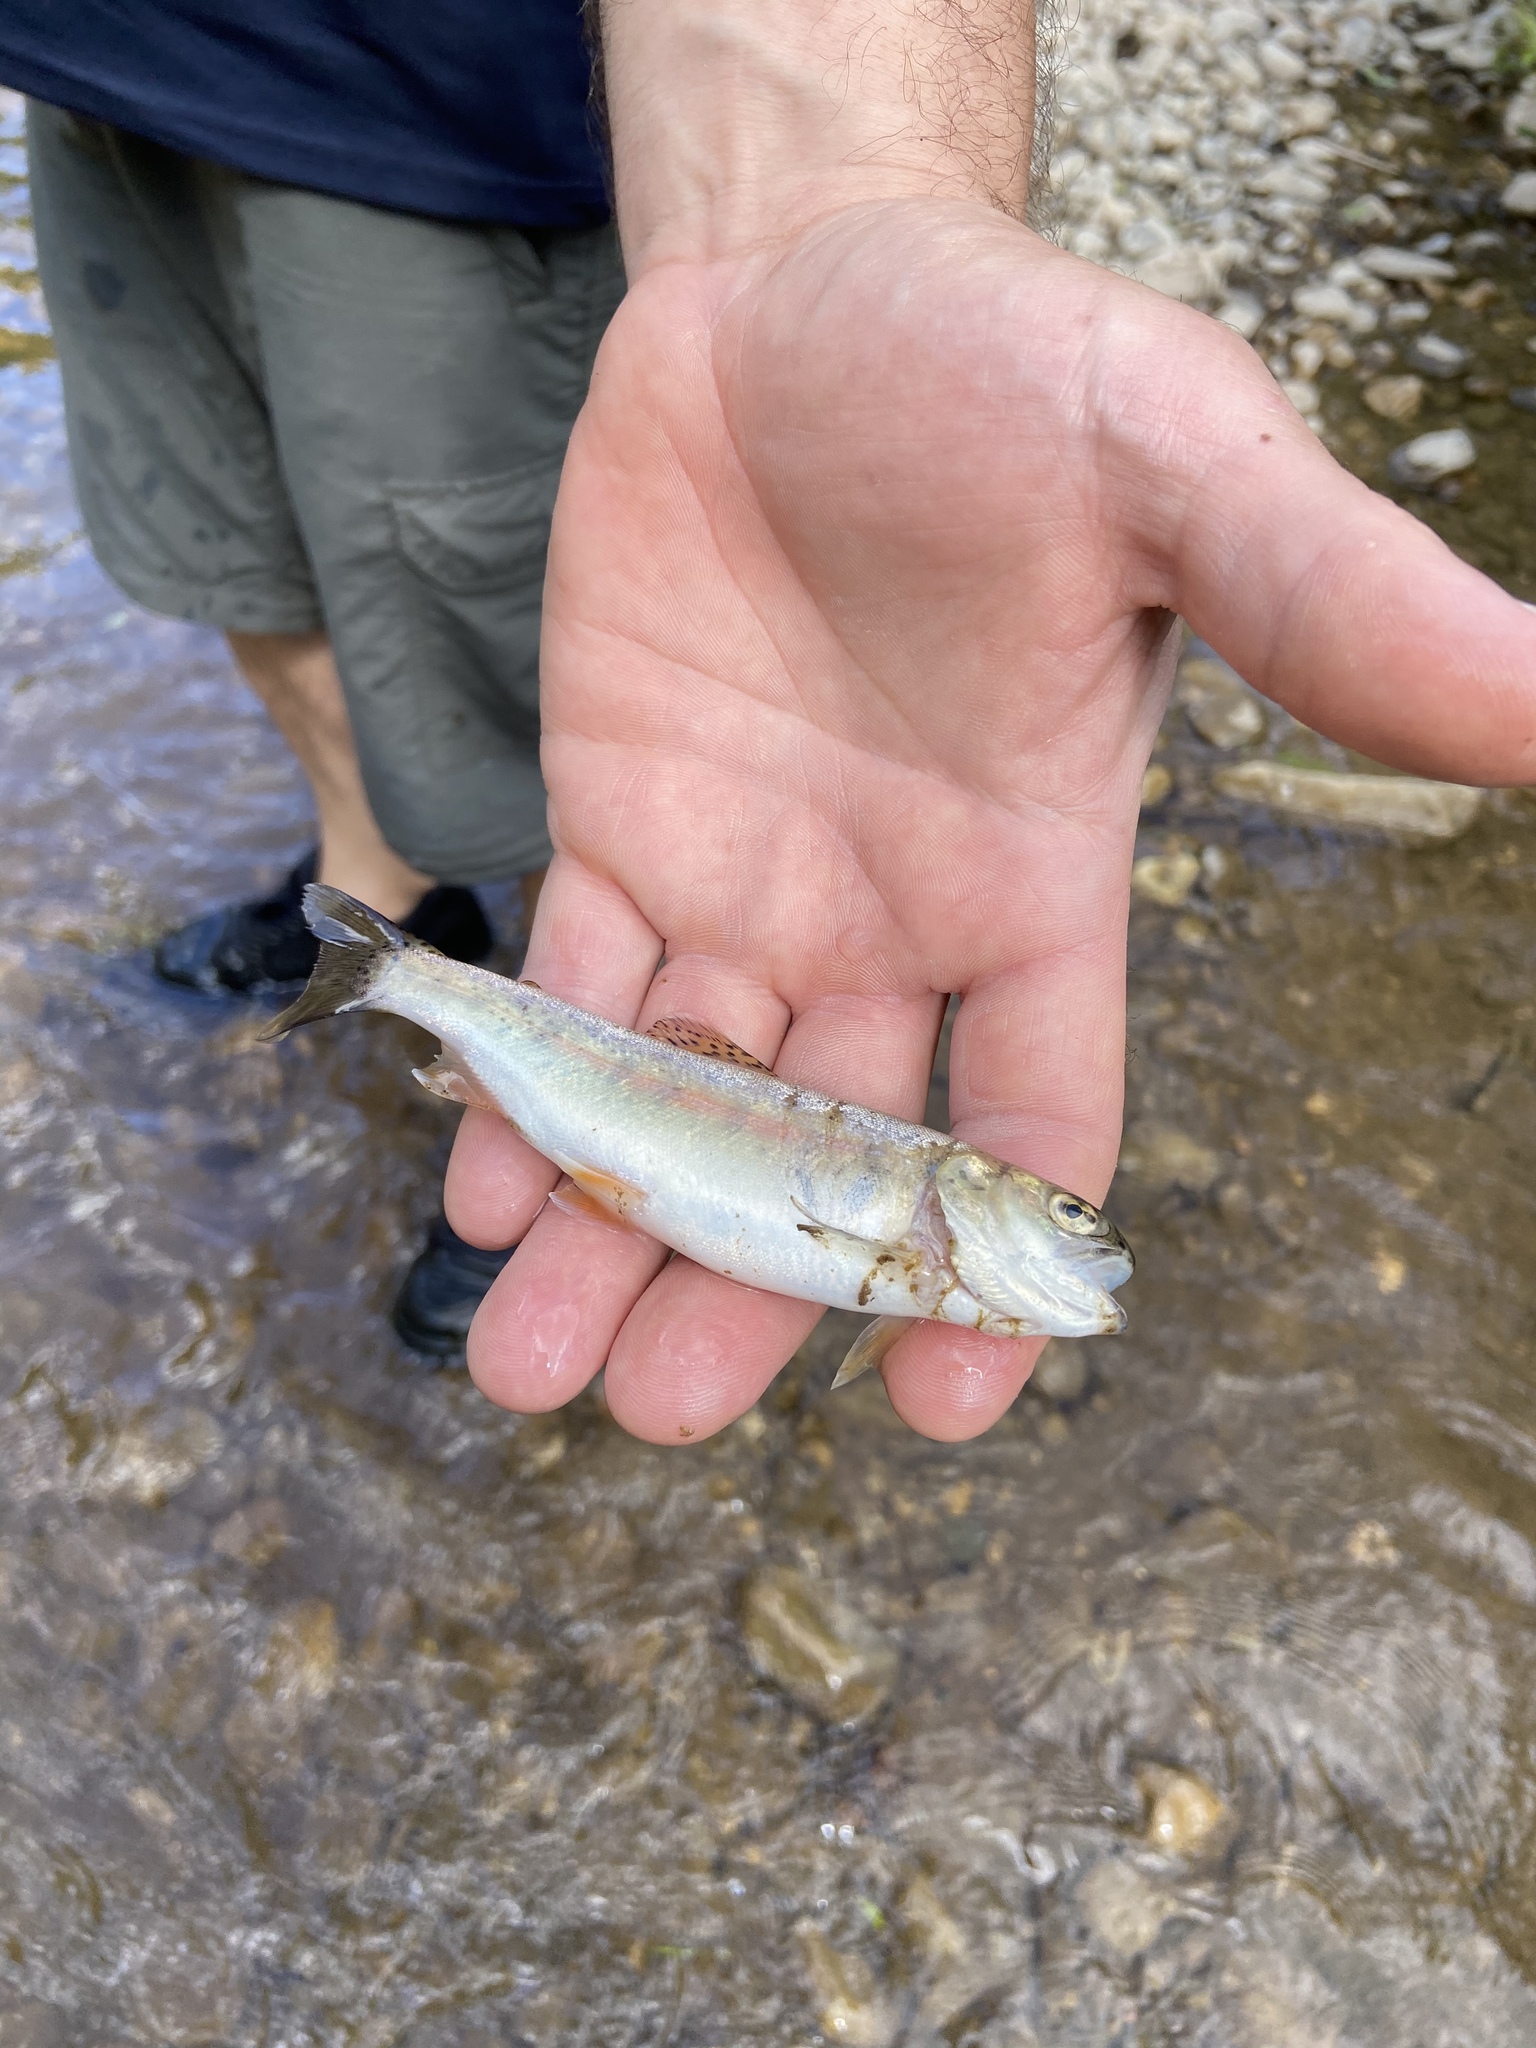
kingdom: Animalia
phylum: Chordata
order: Salmoniformes
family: Salmonidae
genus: Oncorhynchus
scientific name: Oncorhynchus mykiss
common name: Rainbow trout
